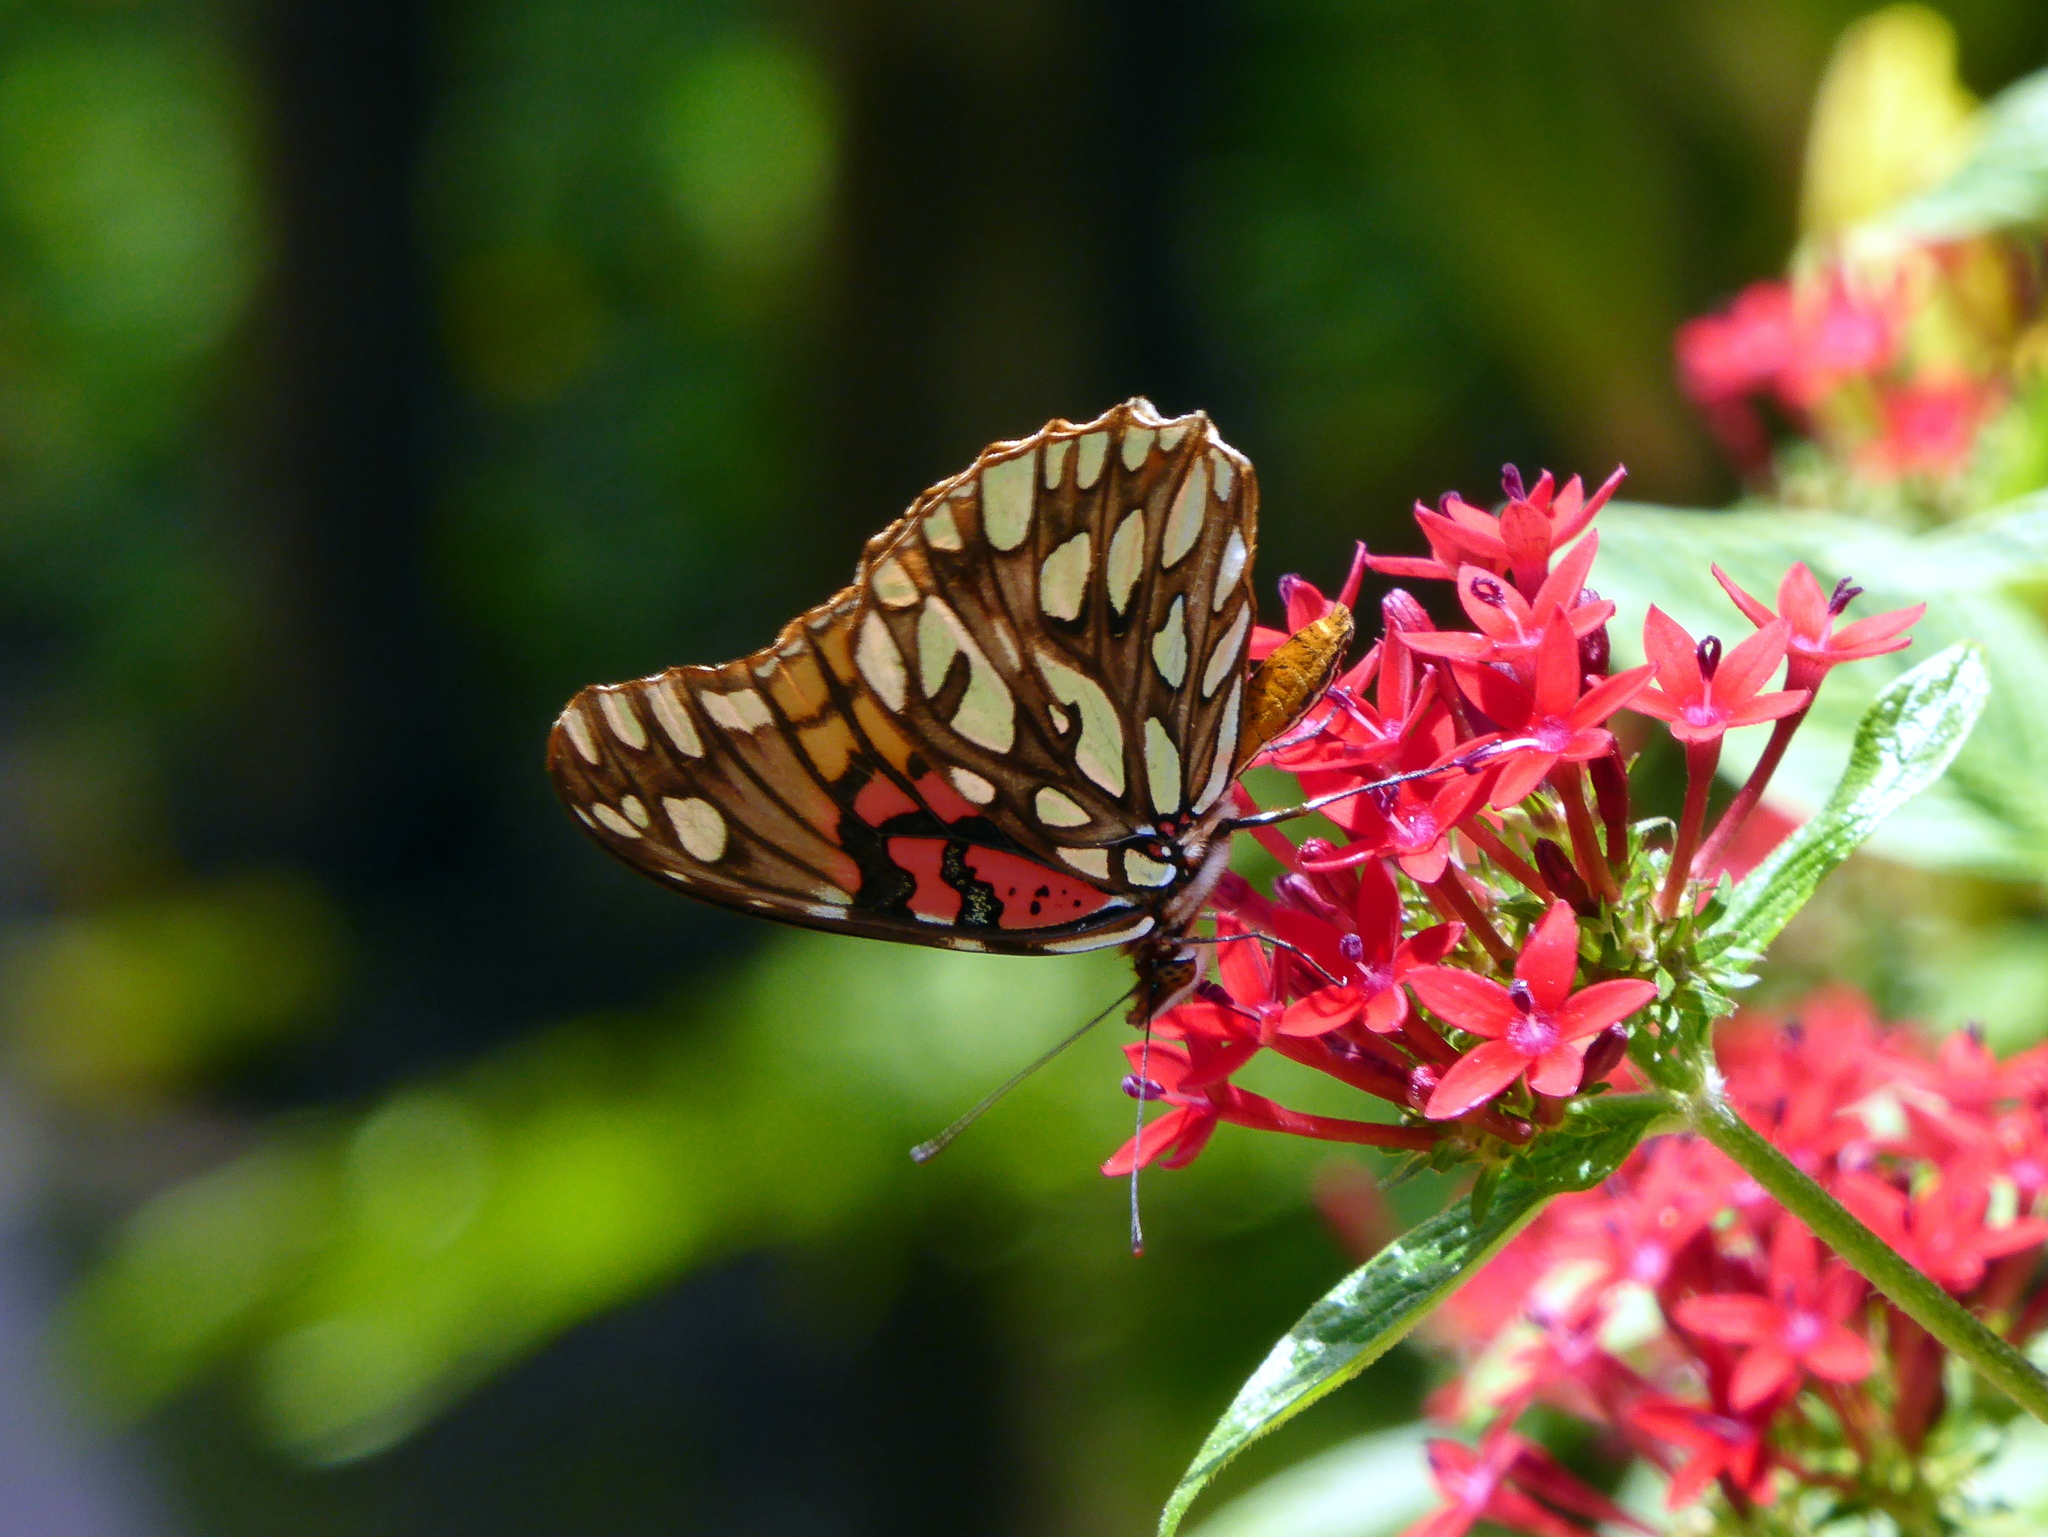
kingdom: Animalia
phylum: Arthropoda
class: Insecta
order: Lepidoptera
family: Nymphalidae
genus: Dione
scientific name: Dione moneta
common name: Mexican silverspot
